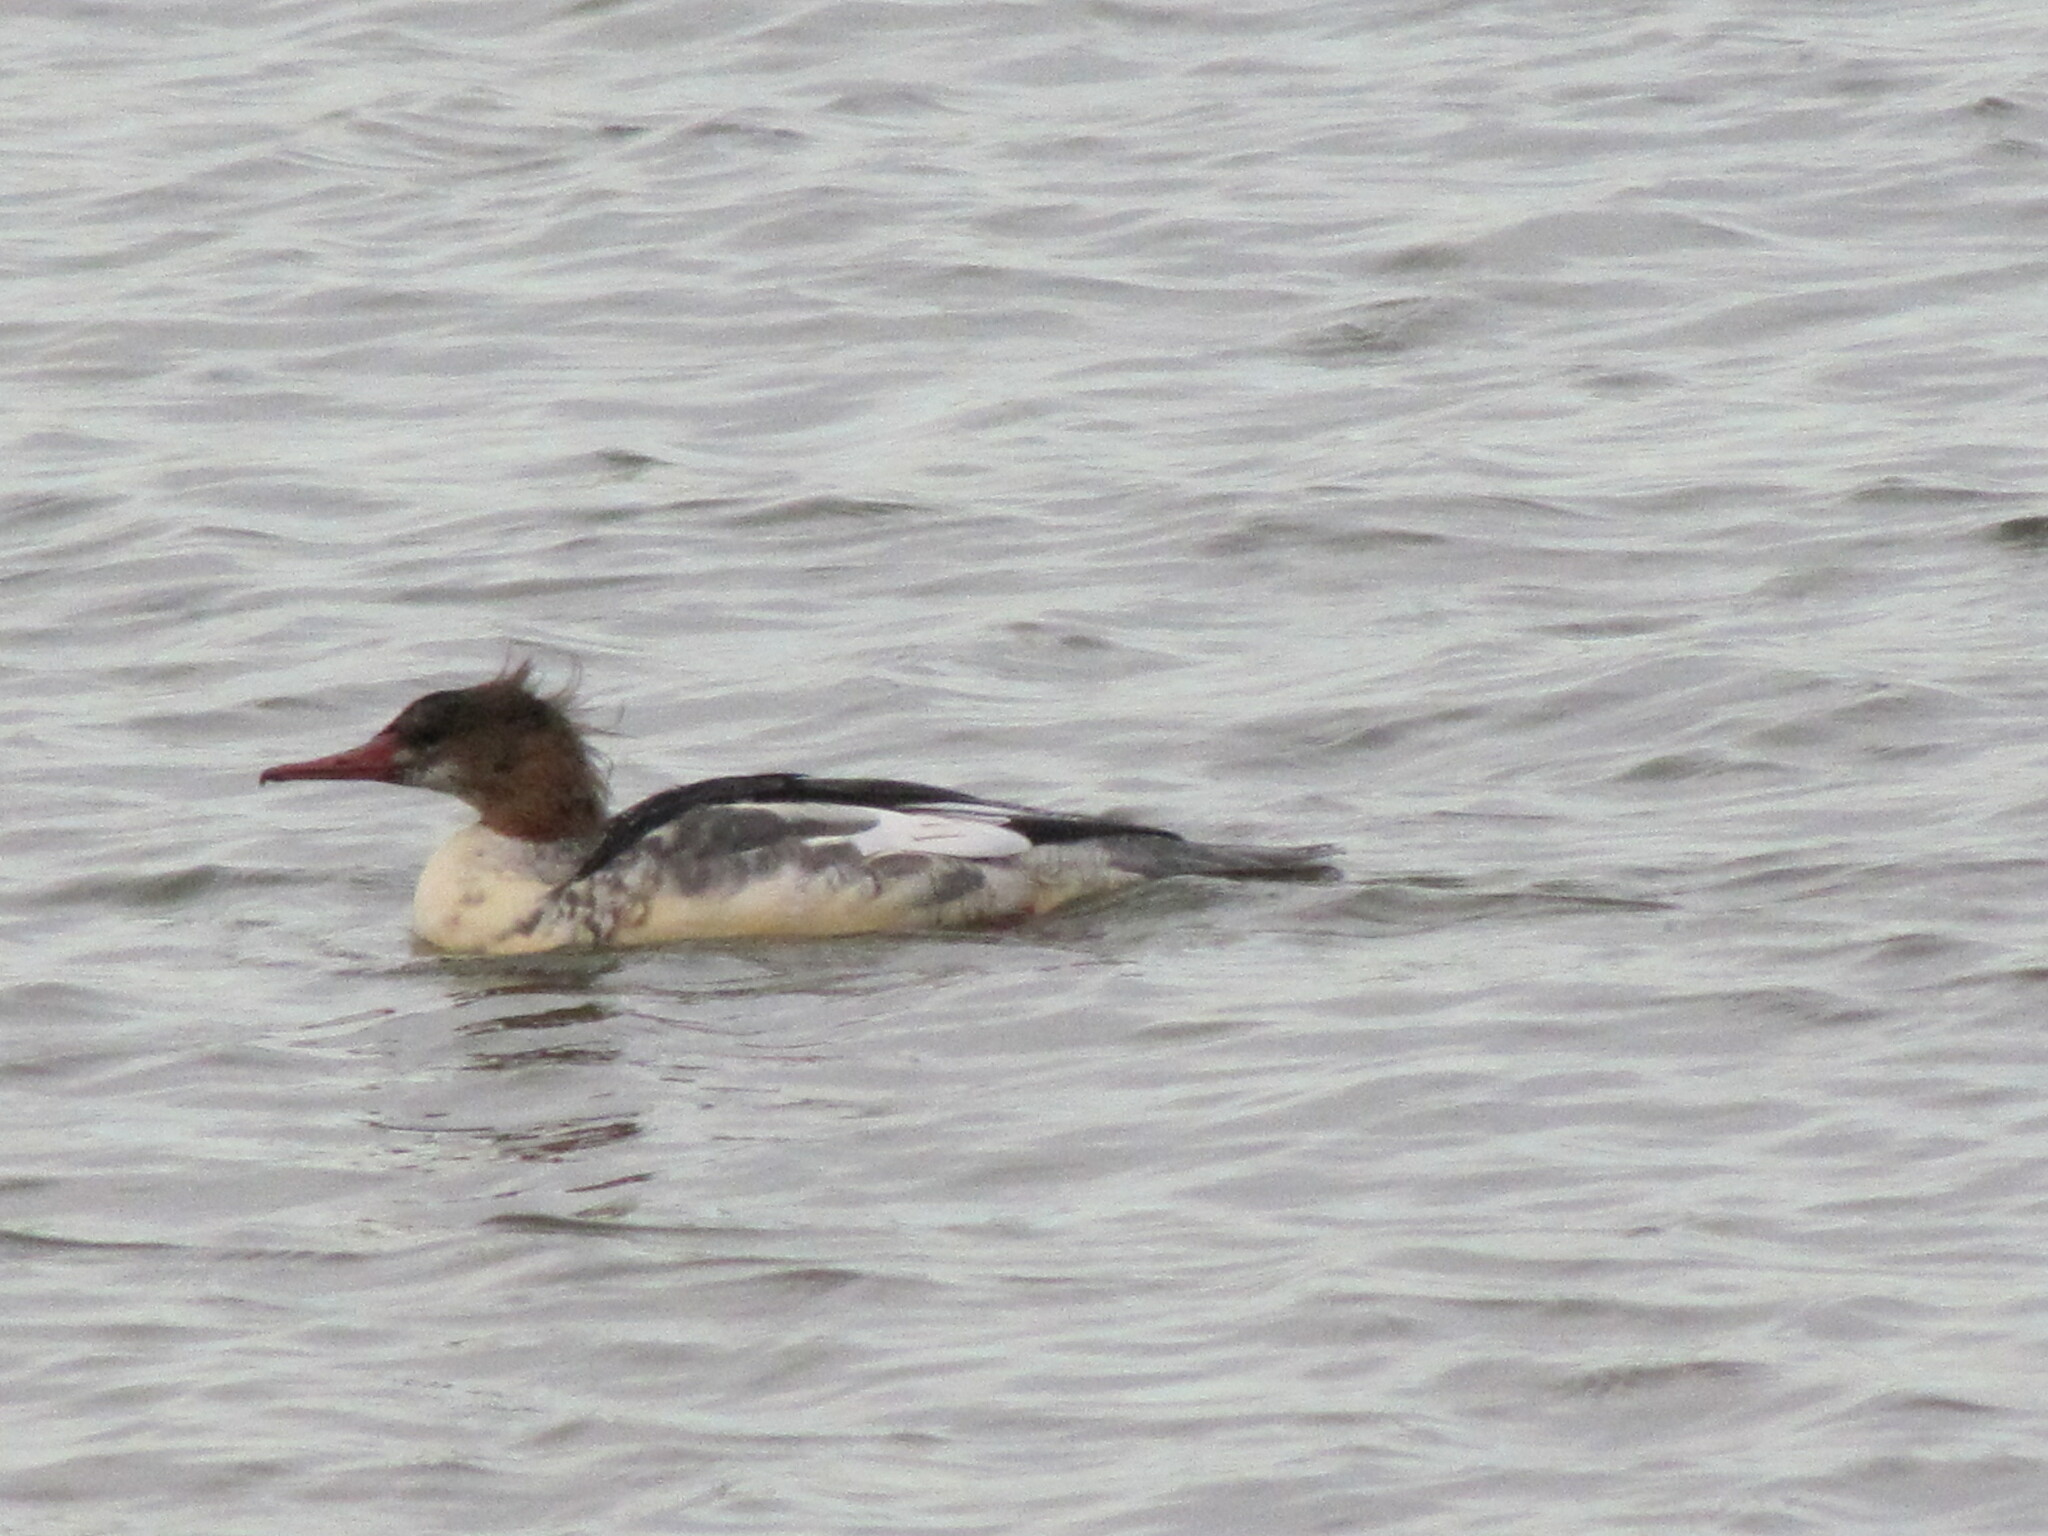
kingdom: Animalia
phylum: Chordata
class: Aves
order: Anseriformes
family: Anatidae
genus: Mergus
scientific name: Mergus merganser
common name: Common merganser
